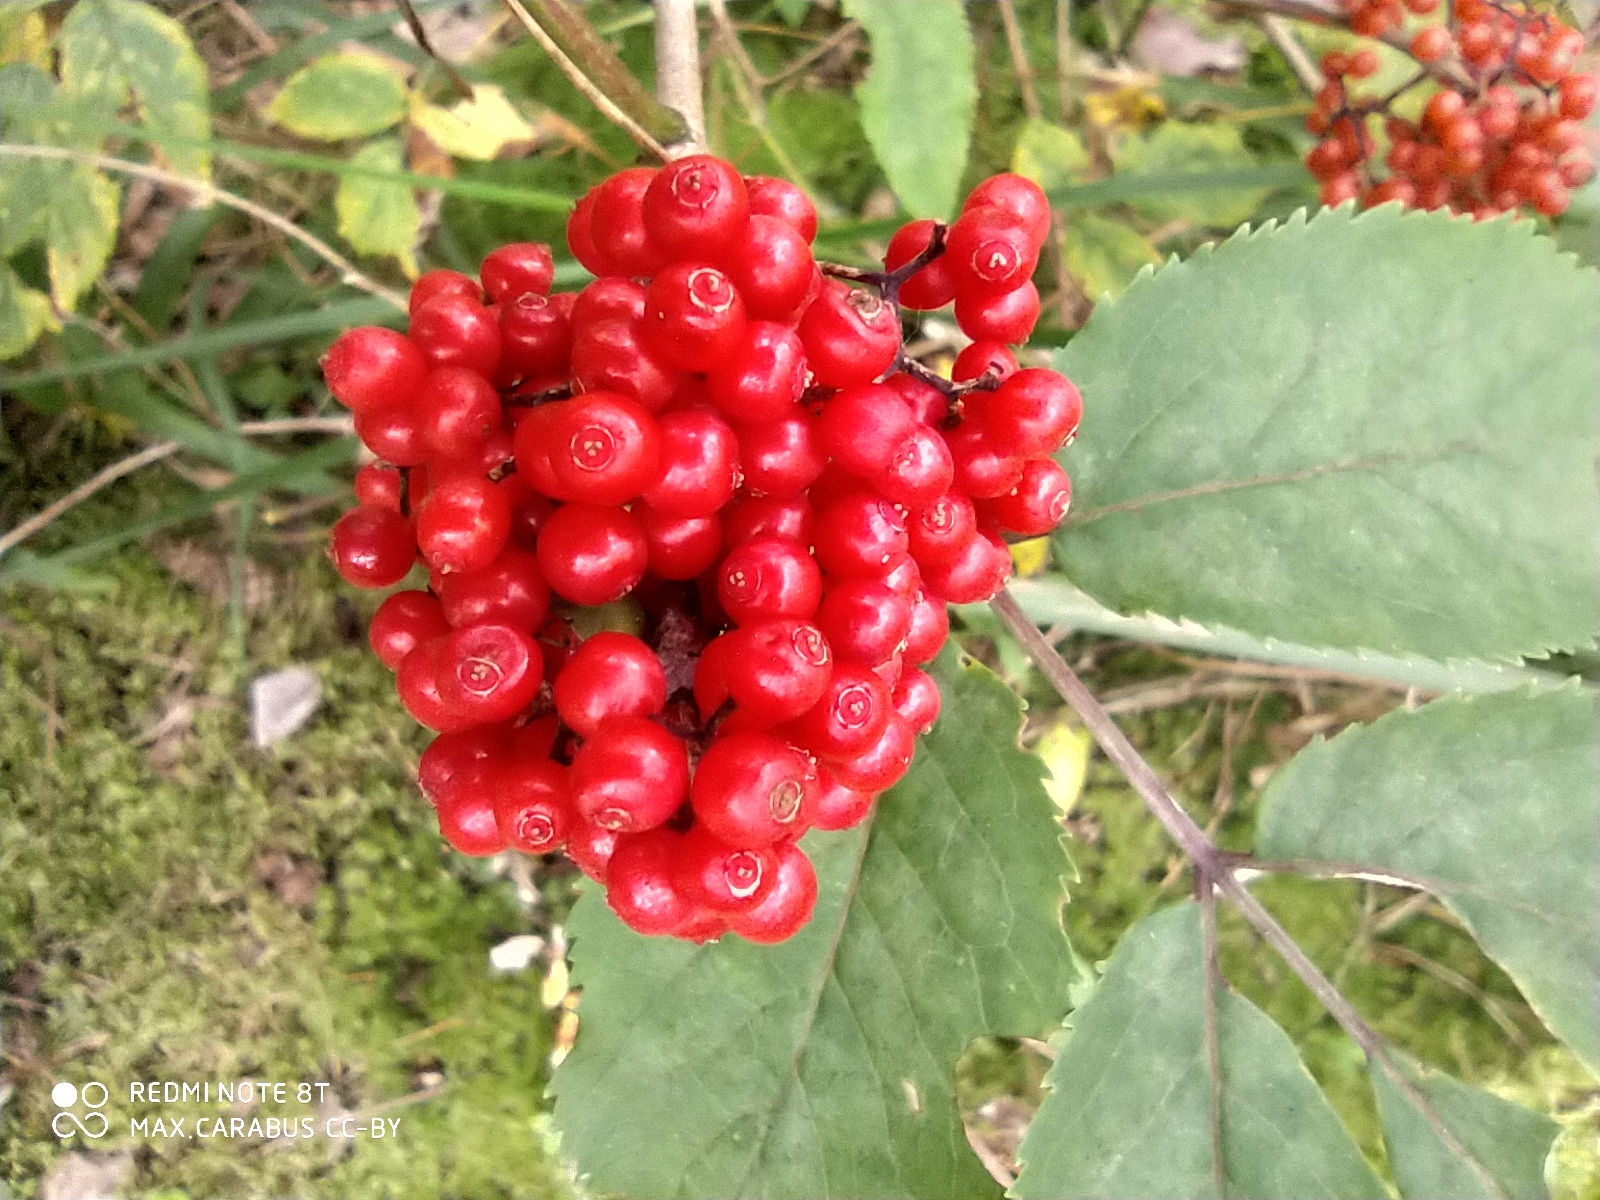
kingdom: Plantae
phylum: Tracheophyta
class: Magnoliopsida
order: Dipsacales
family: Viburnaceae
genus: Sambucus
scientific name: Sambucus racemosa
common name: Red-berried elder
